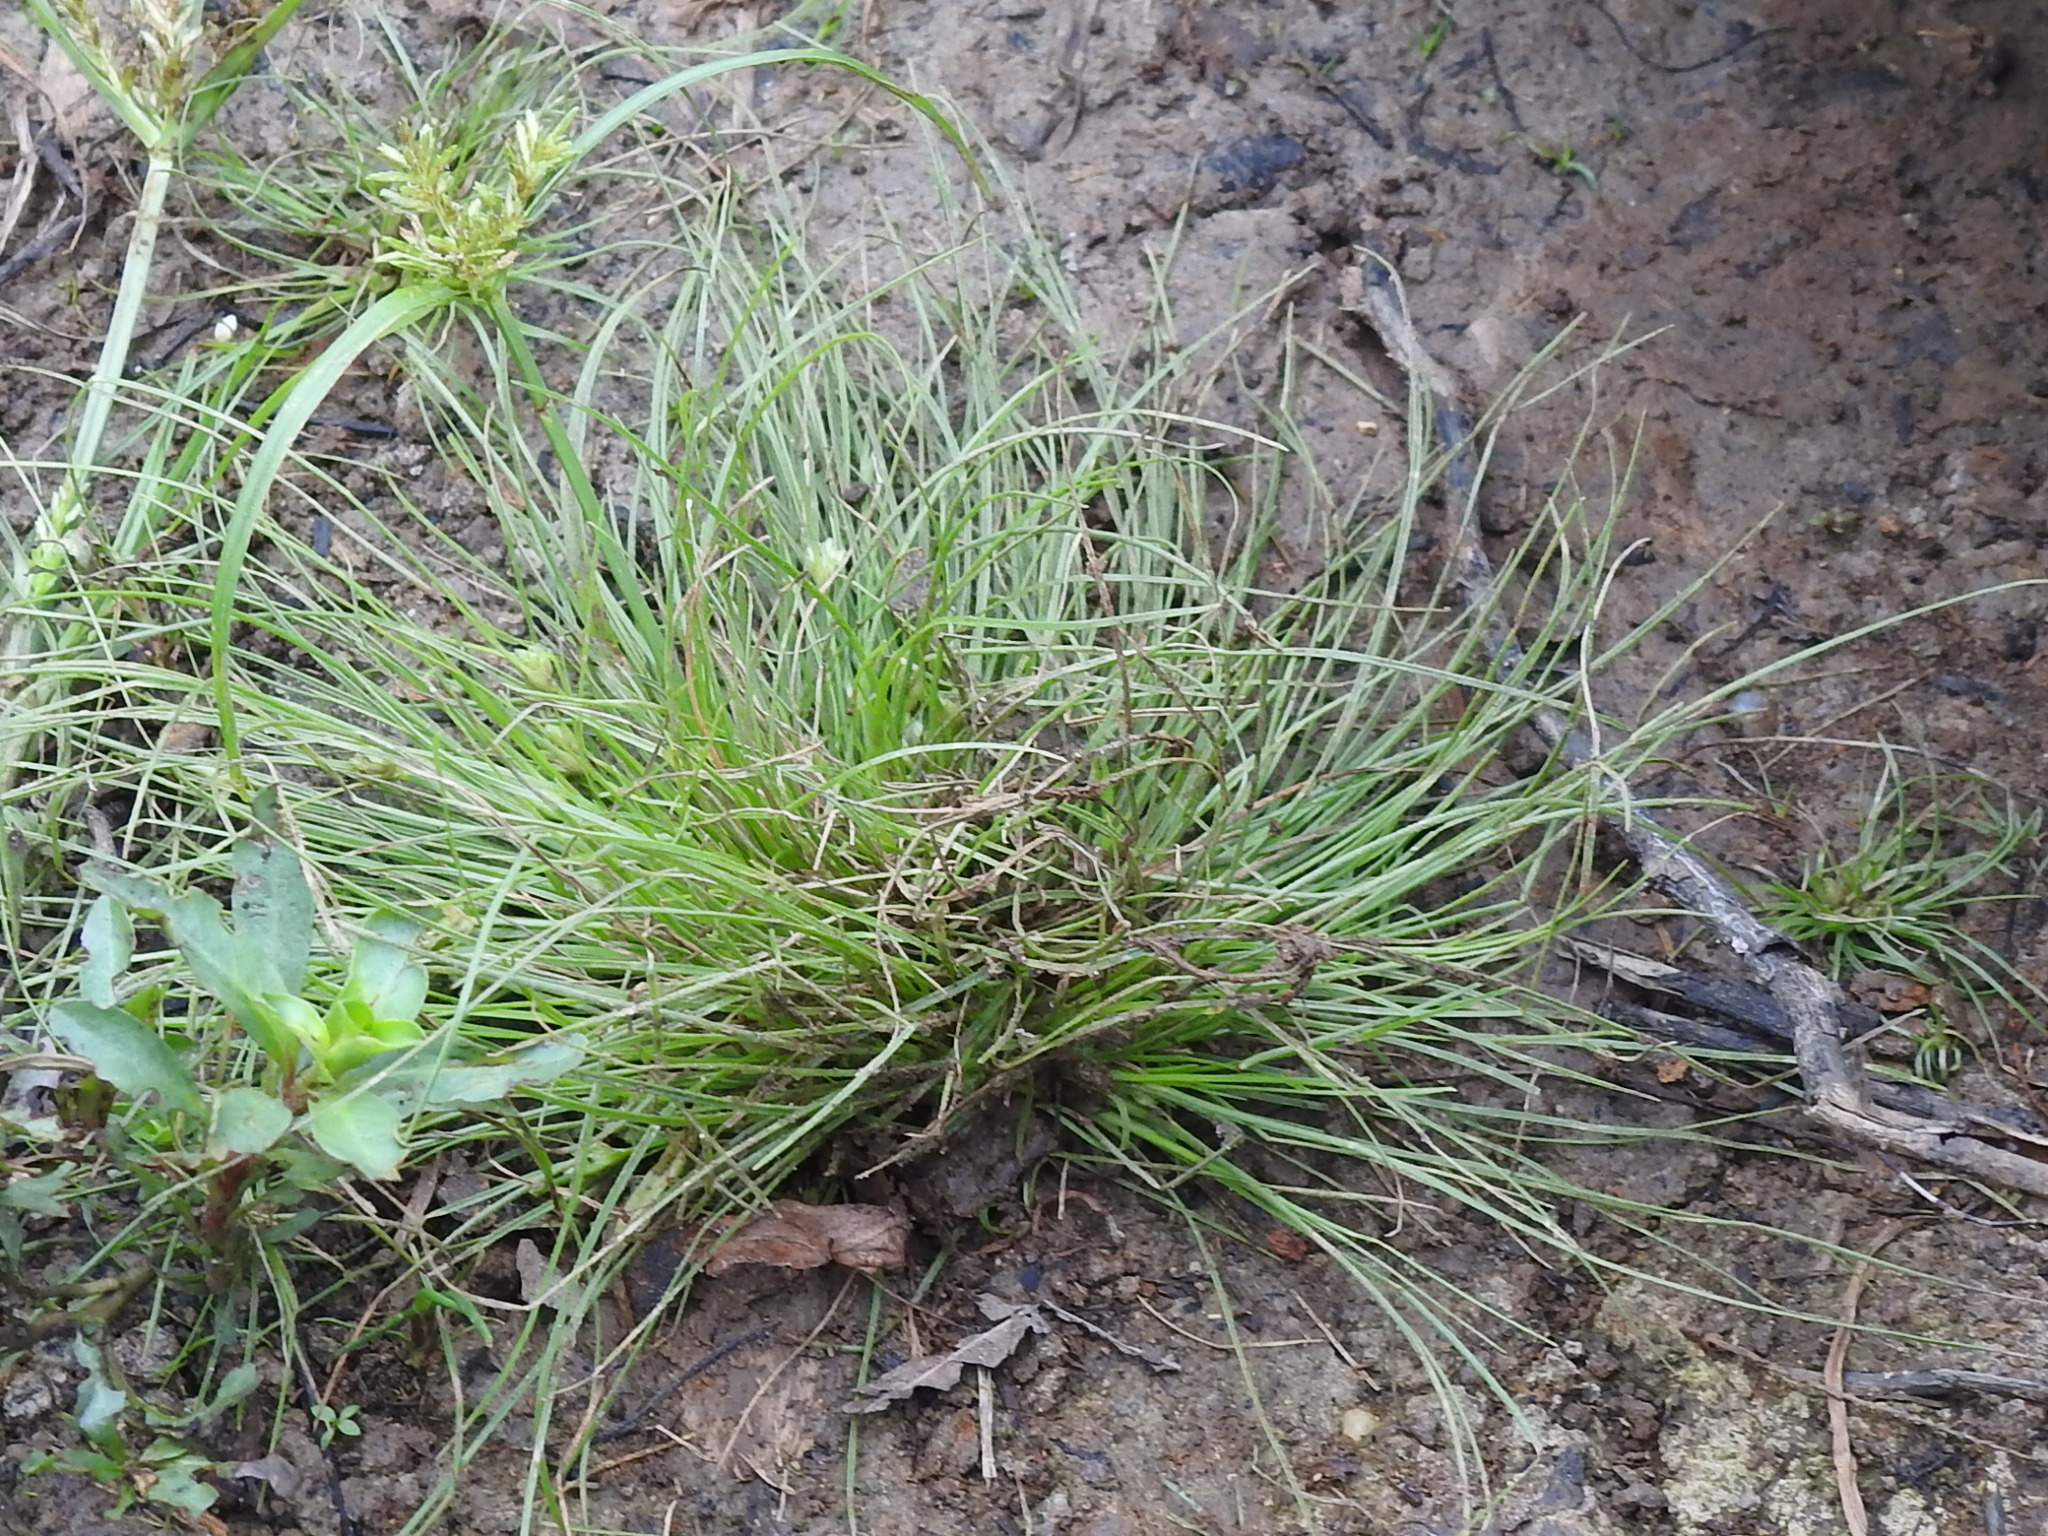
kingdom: Plantae
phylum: Tracheophyta
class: Liliopsida
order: Poales
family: Cyperaceae
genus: Fimbristylis
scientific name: Fimbristylis vahlii
